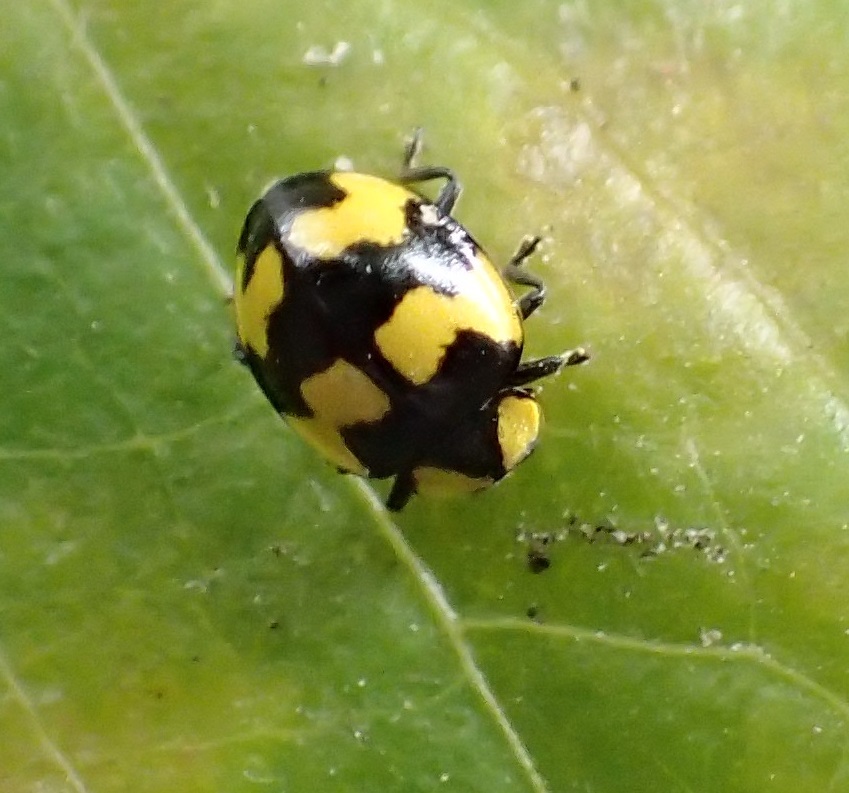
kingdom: Animalia
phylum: Arthropoda
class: Insecta
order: Coleoptera
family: Coccinellidae
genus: Illeis
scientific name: Illeis galbula
